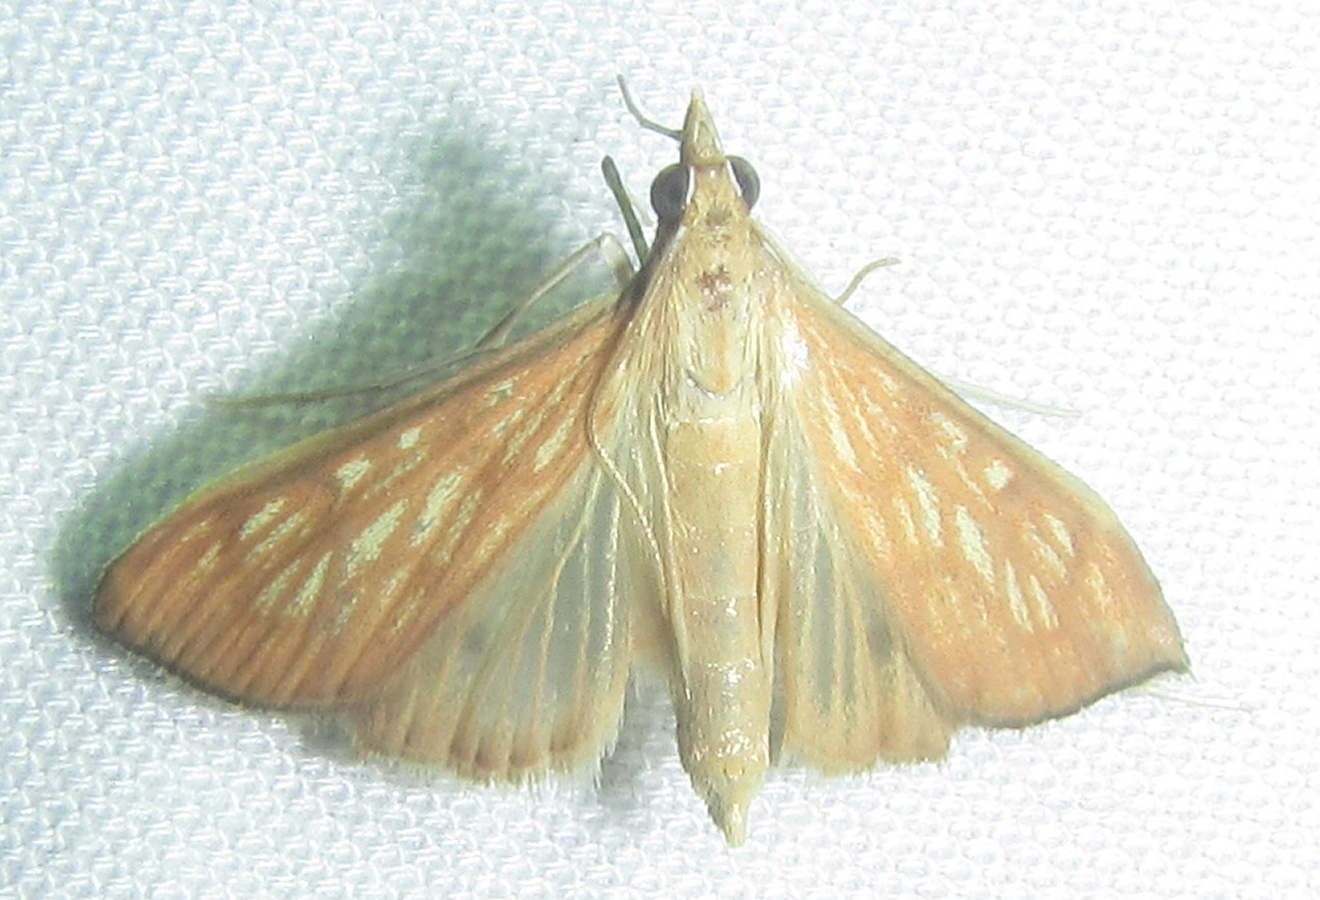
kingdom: Animalia
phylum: Arthropoda
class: Insecta
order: Lepidoptera
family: Crambidae
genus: Antigastra
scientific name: Antigastra catalaunalis
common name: Spanish dot
